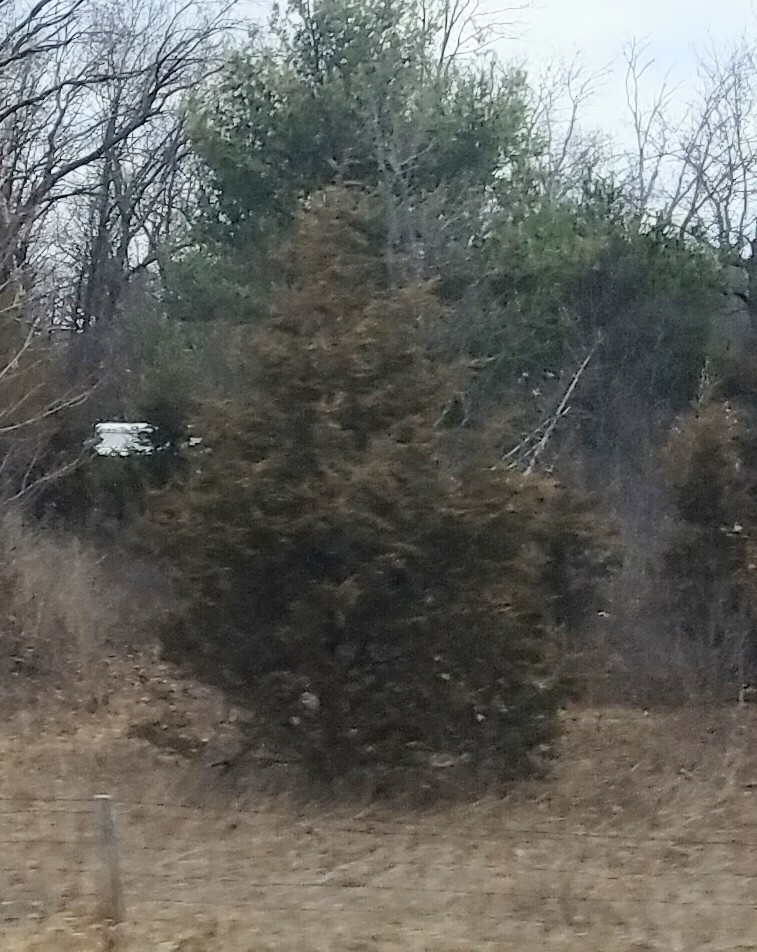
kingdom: Plantae
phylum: Tracheophyta
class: Pinopsida
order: Pinales
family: Cupressaceae
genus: Juniperus
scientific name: Juniperus virginiana
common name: Red juniper
